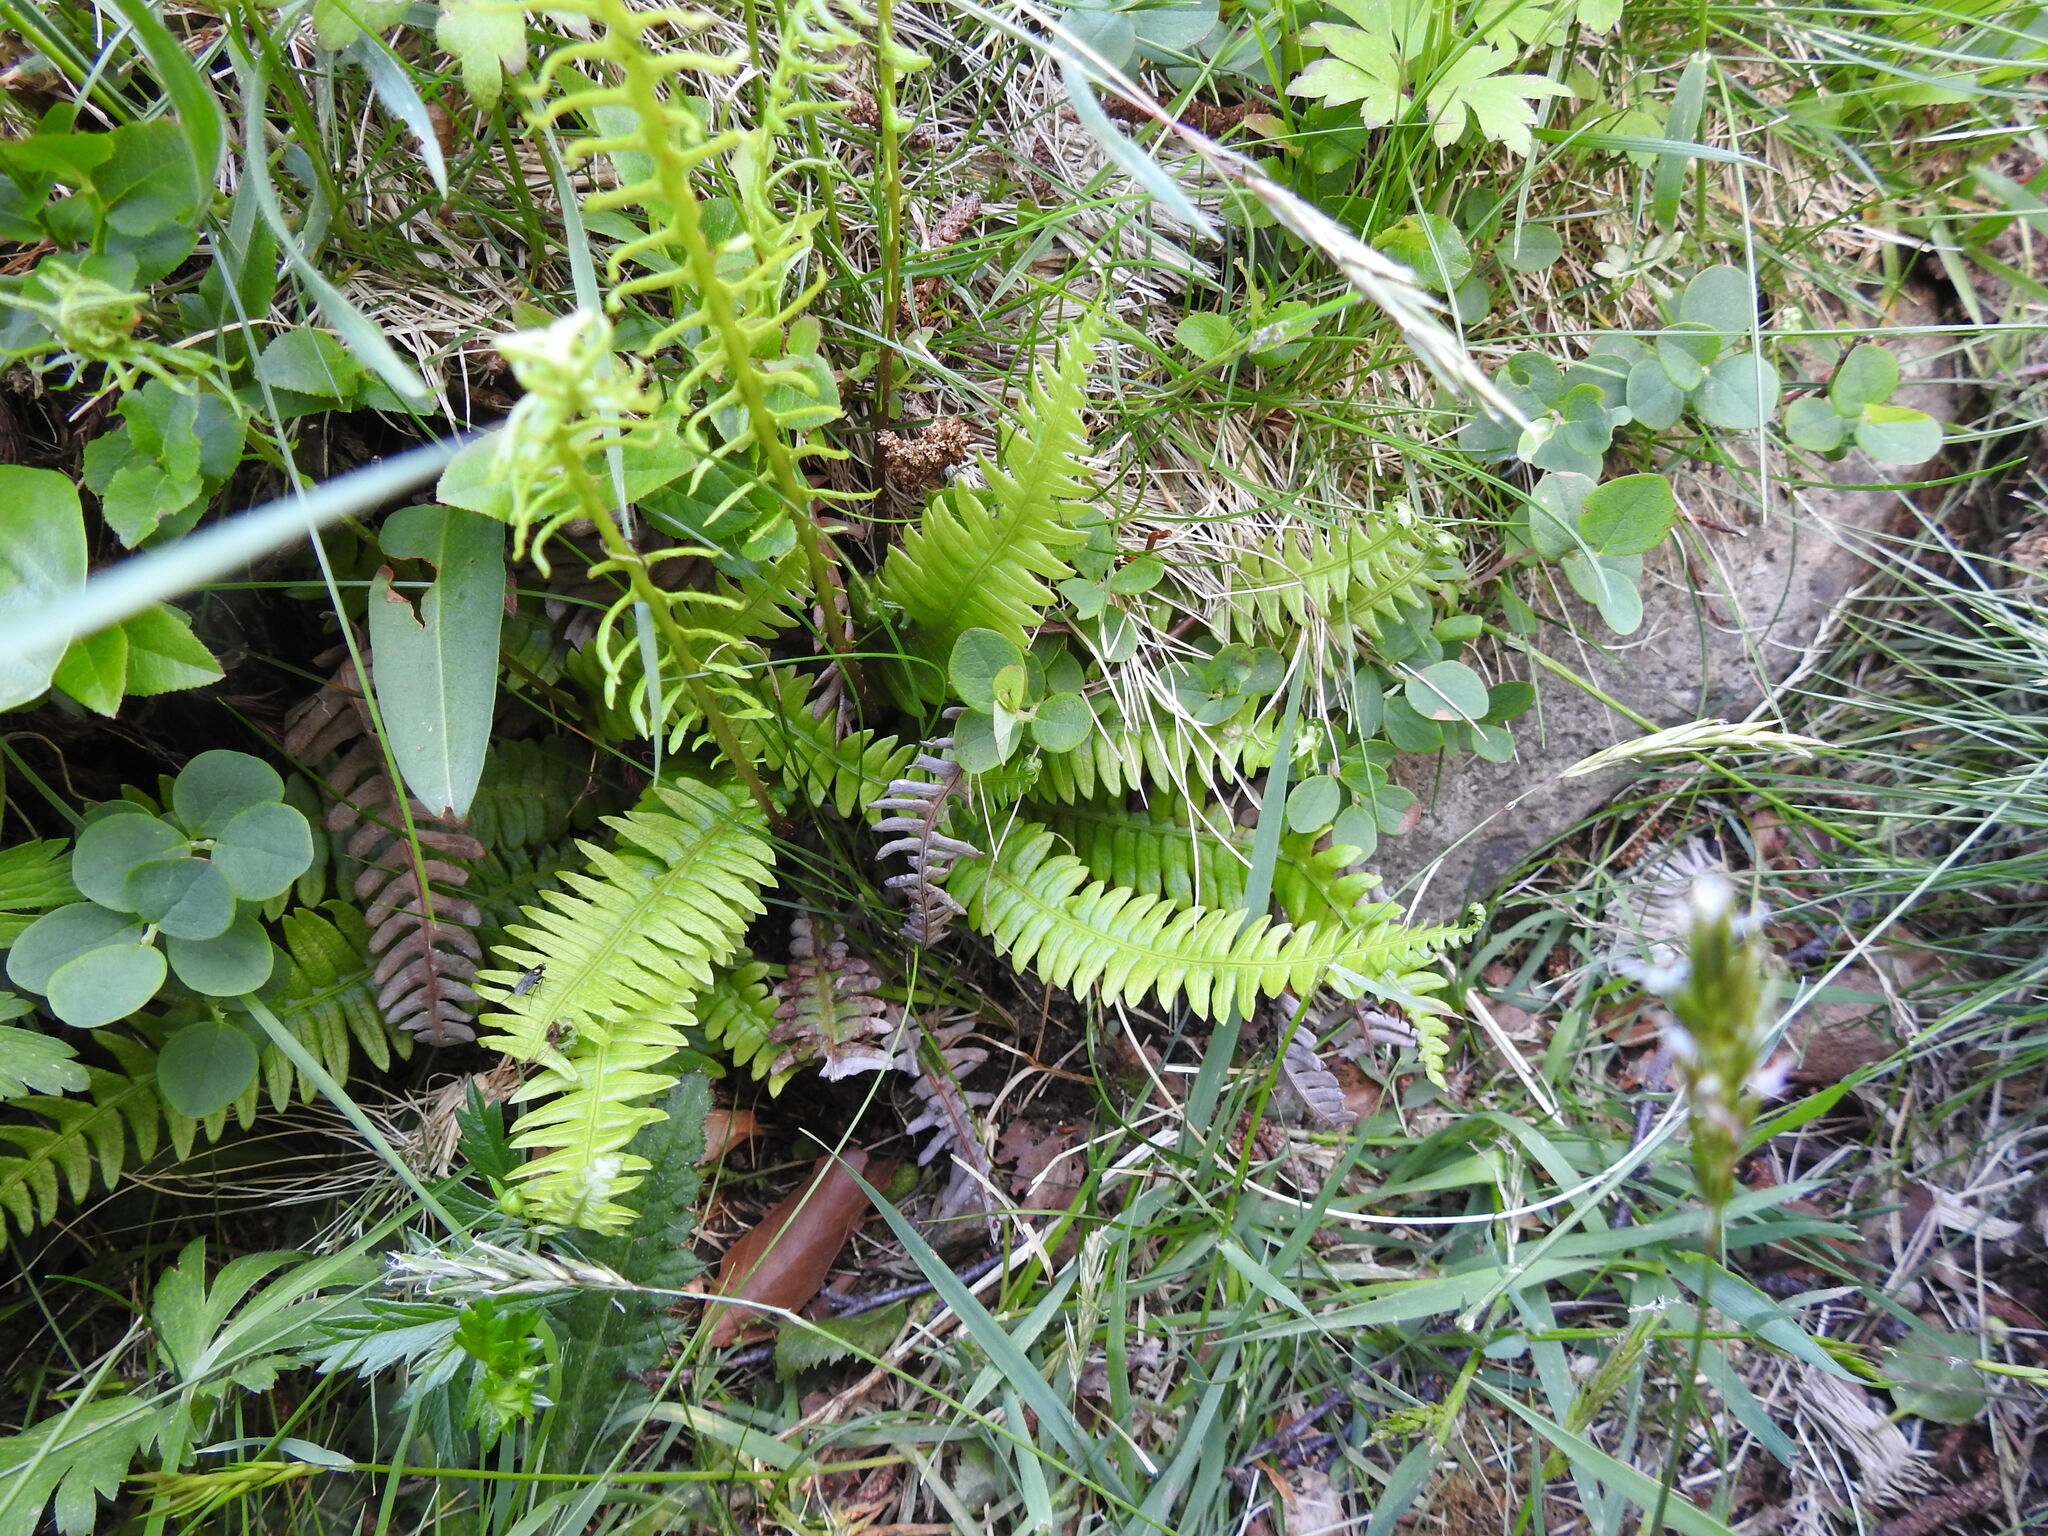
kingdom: Plantae
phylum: Tracheophyta
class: Polypodiopsida
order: Polypodiales
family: Blechnaceae
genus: Struthiopteris
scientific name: Struthiopteris spicant
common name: Deer fern
